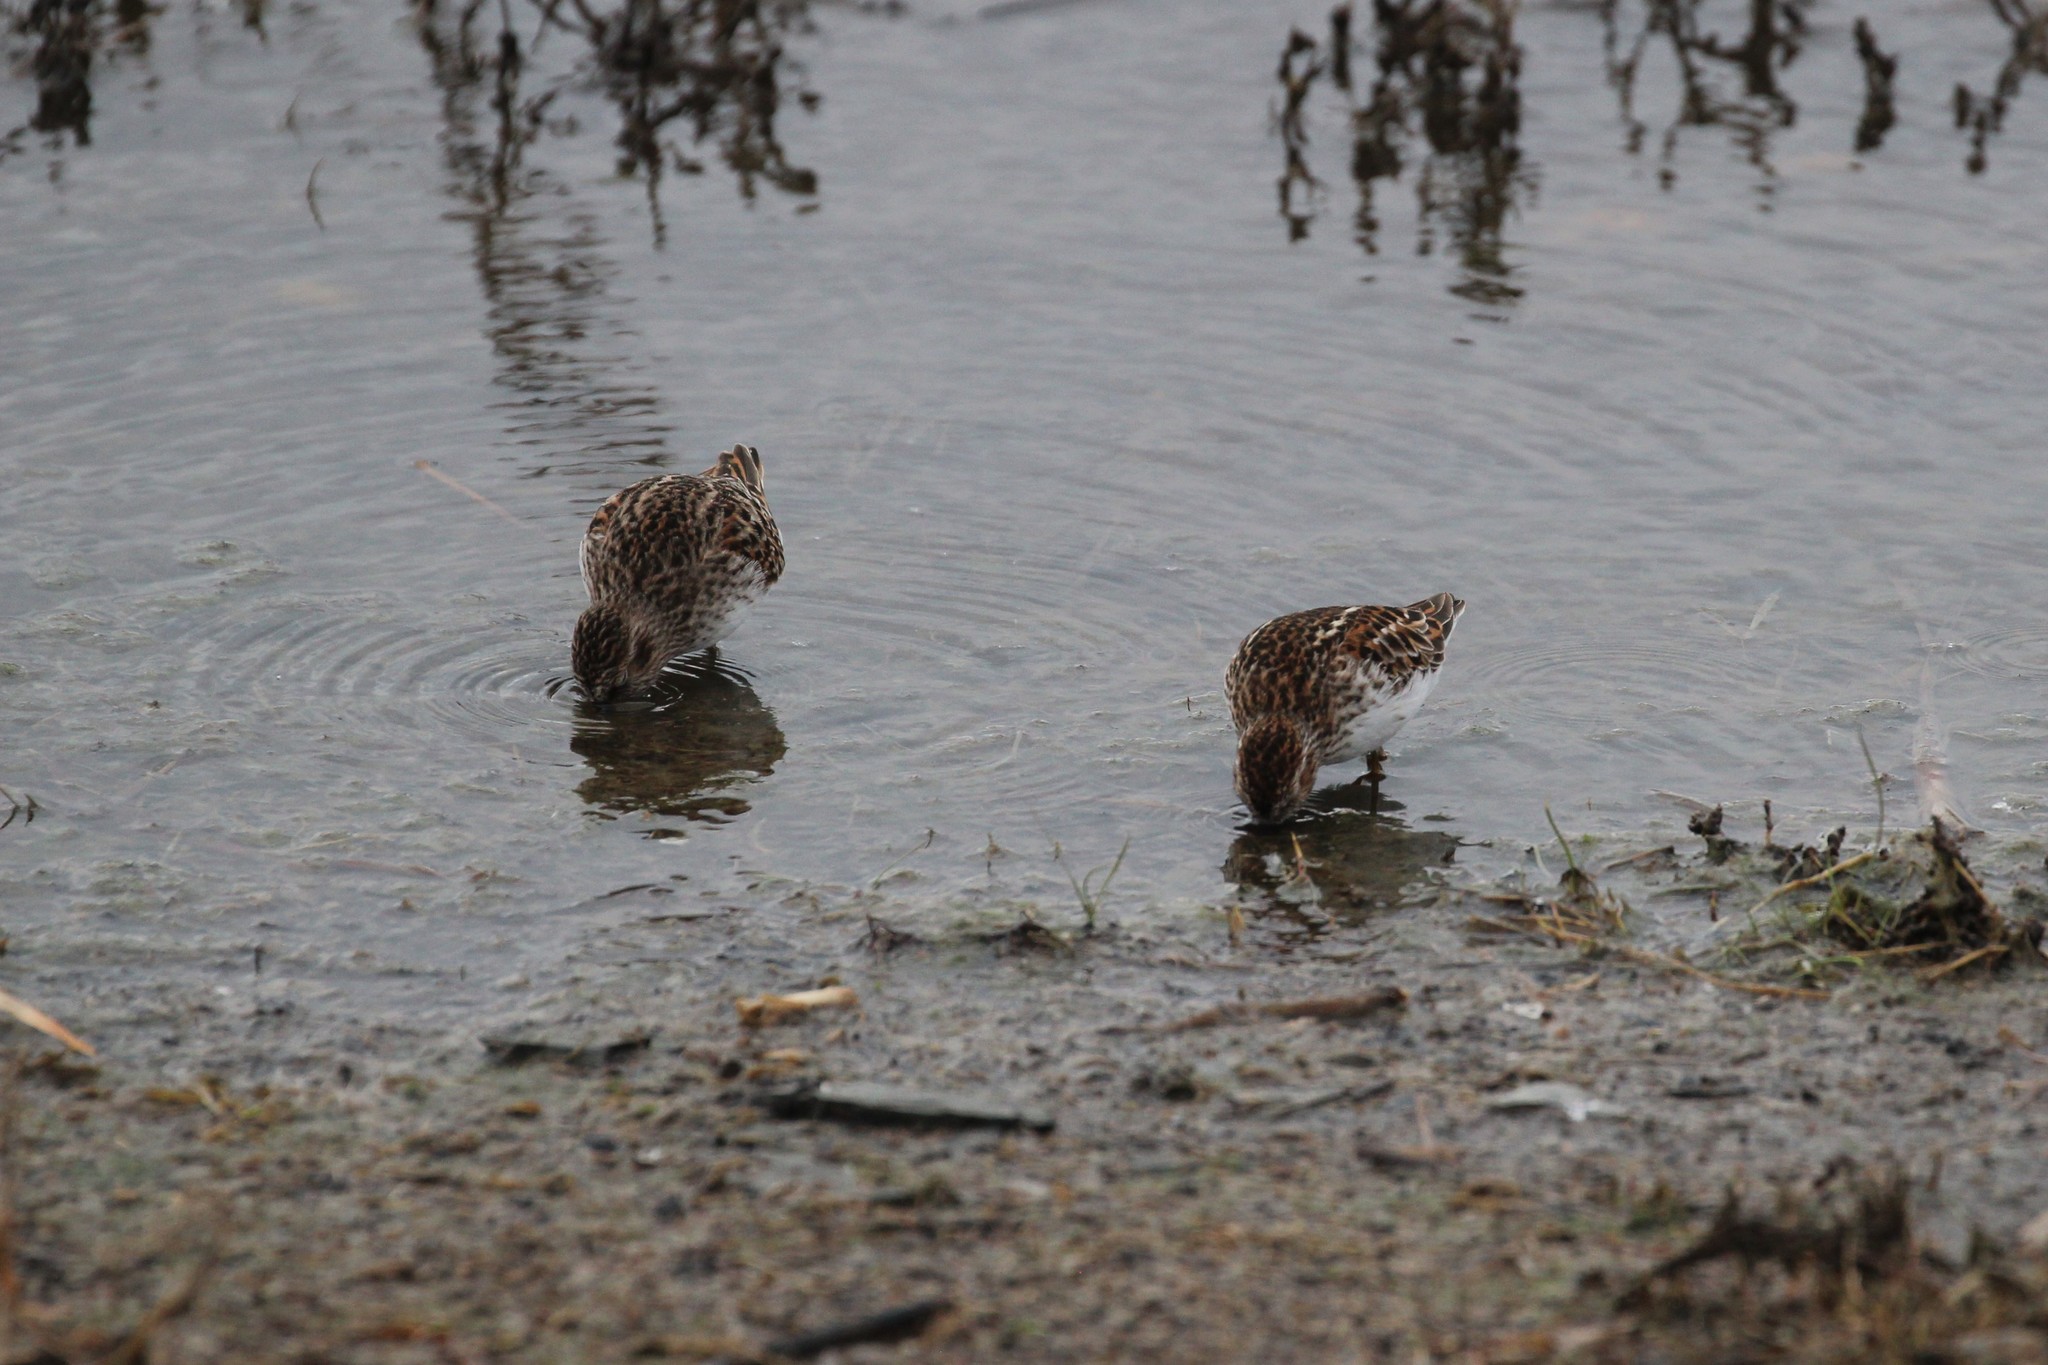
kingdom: Animalia
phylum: Chordata
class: Aves
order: Charadriiformes
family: Scolopacidae
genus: Calidris
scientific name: Calidris minutilla
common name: Least sandpiper
